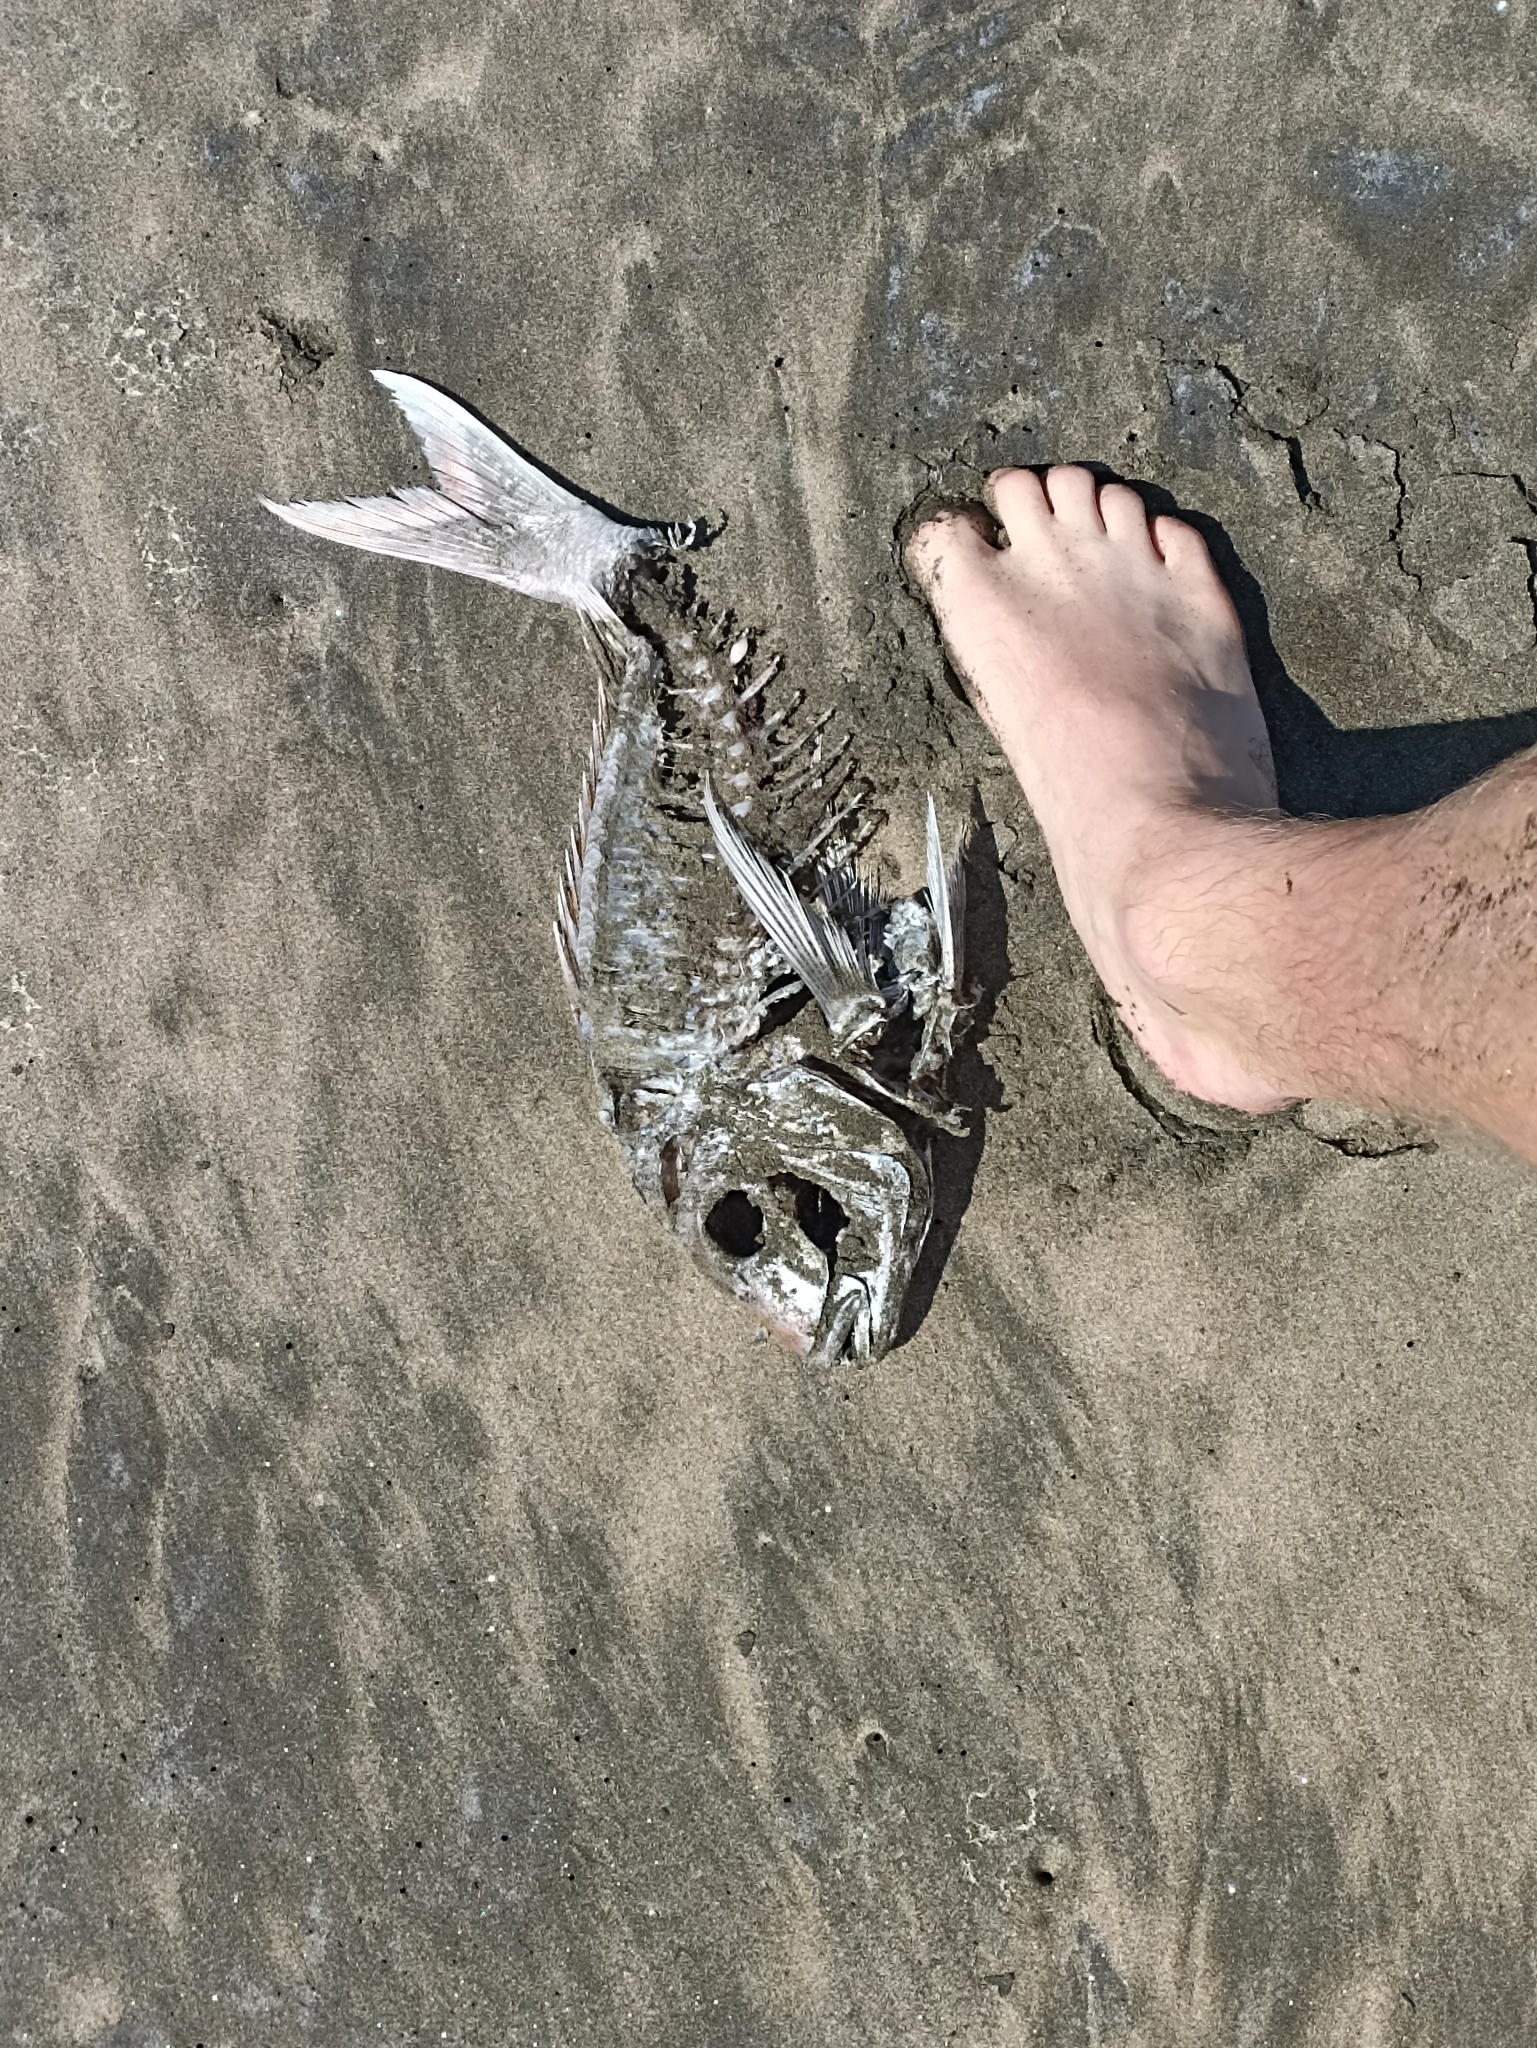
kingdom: Animalia
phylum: Chordata
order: Perciformes
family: Sparidae
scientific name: Sparidae
